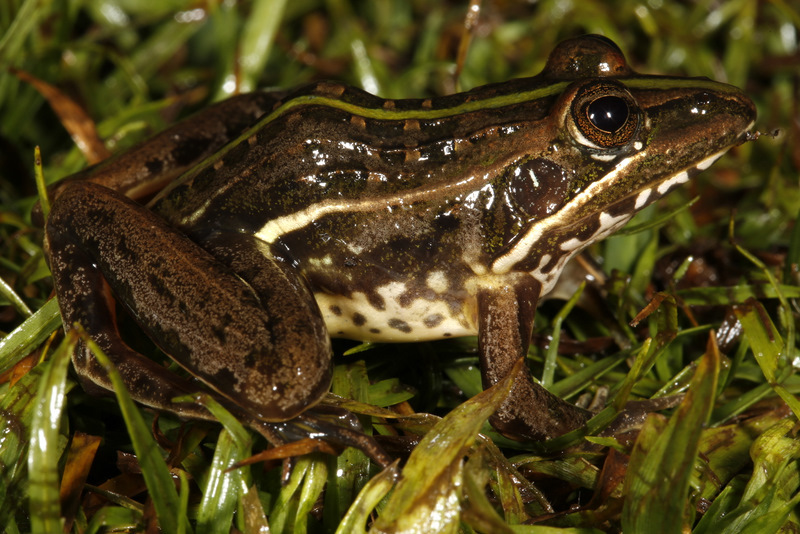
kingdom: Animalia
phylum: Chordata
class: Amphibia
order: Anura
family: Ptychadenidae
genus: Ptychadena
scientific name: Ptychadena subpunctata
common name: Bocage's grassland frog
